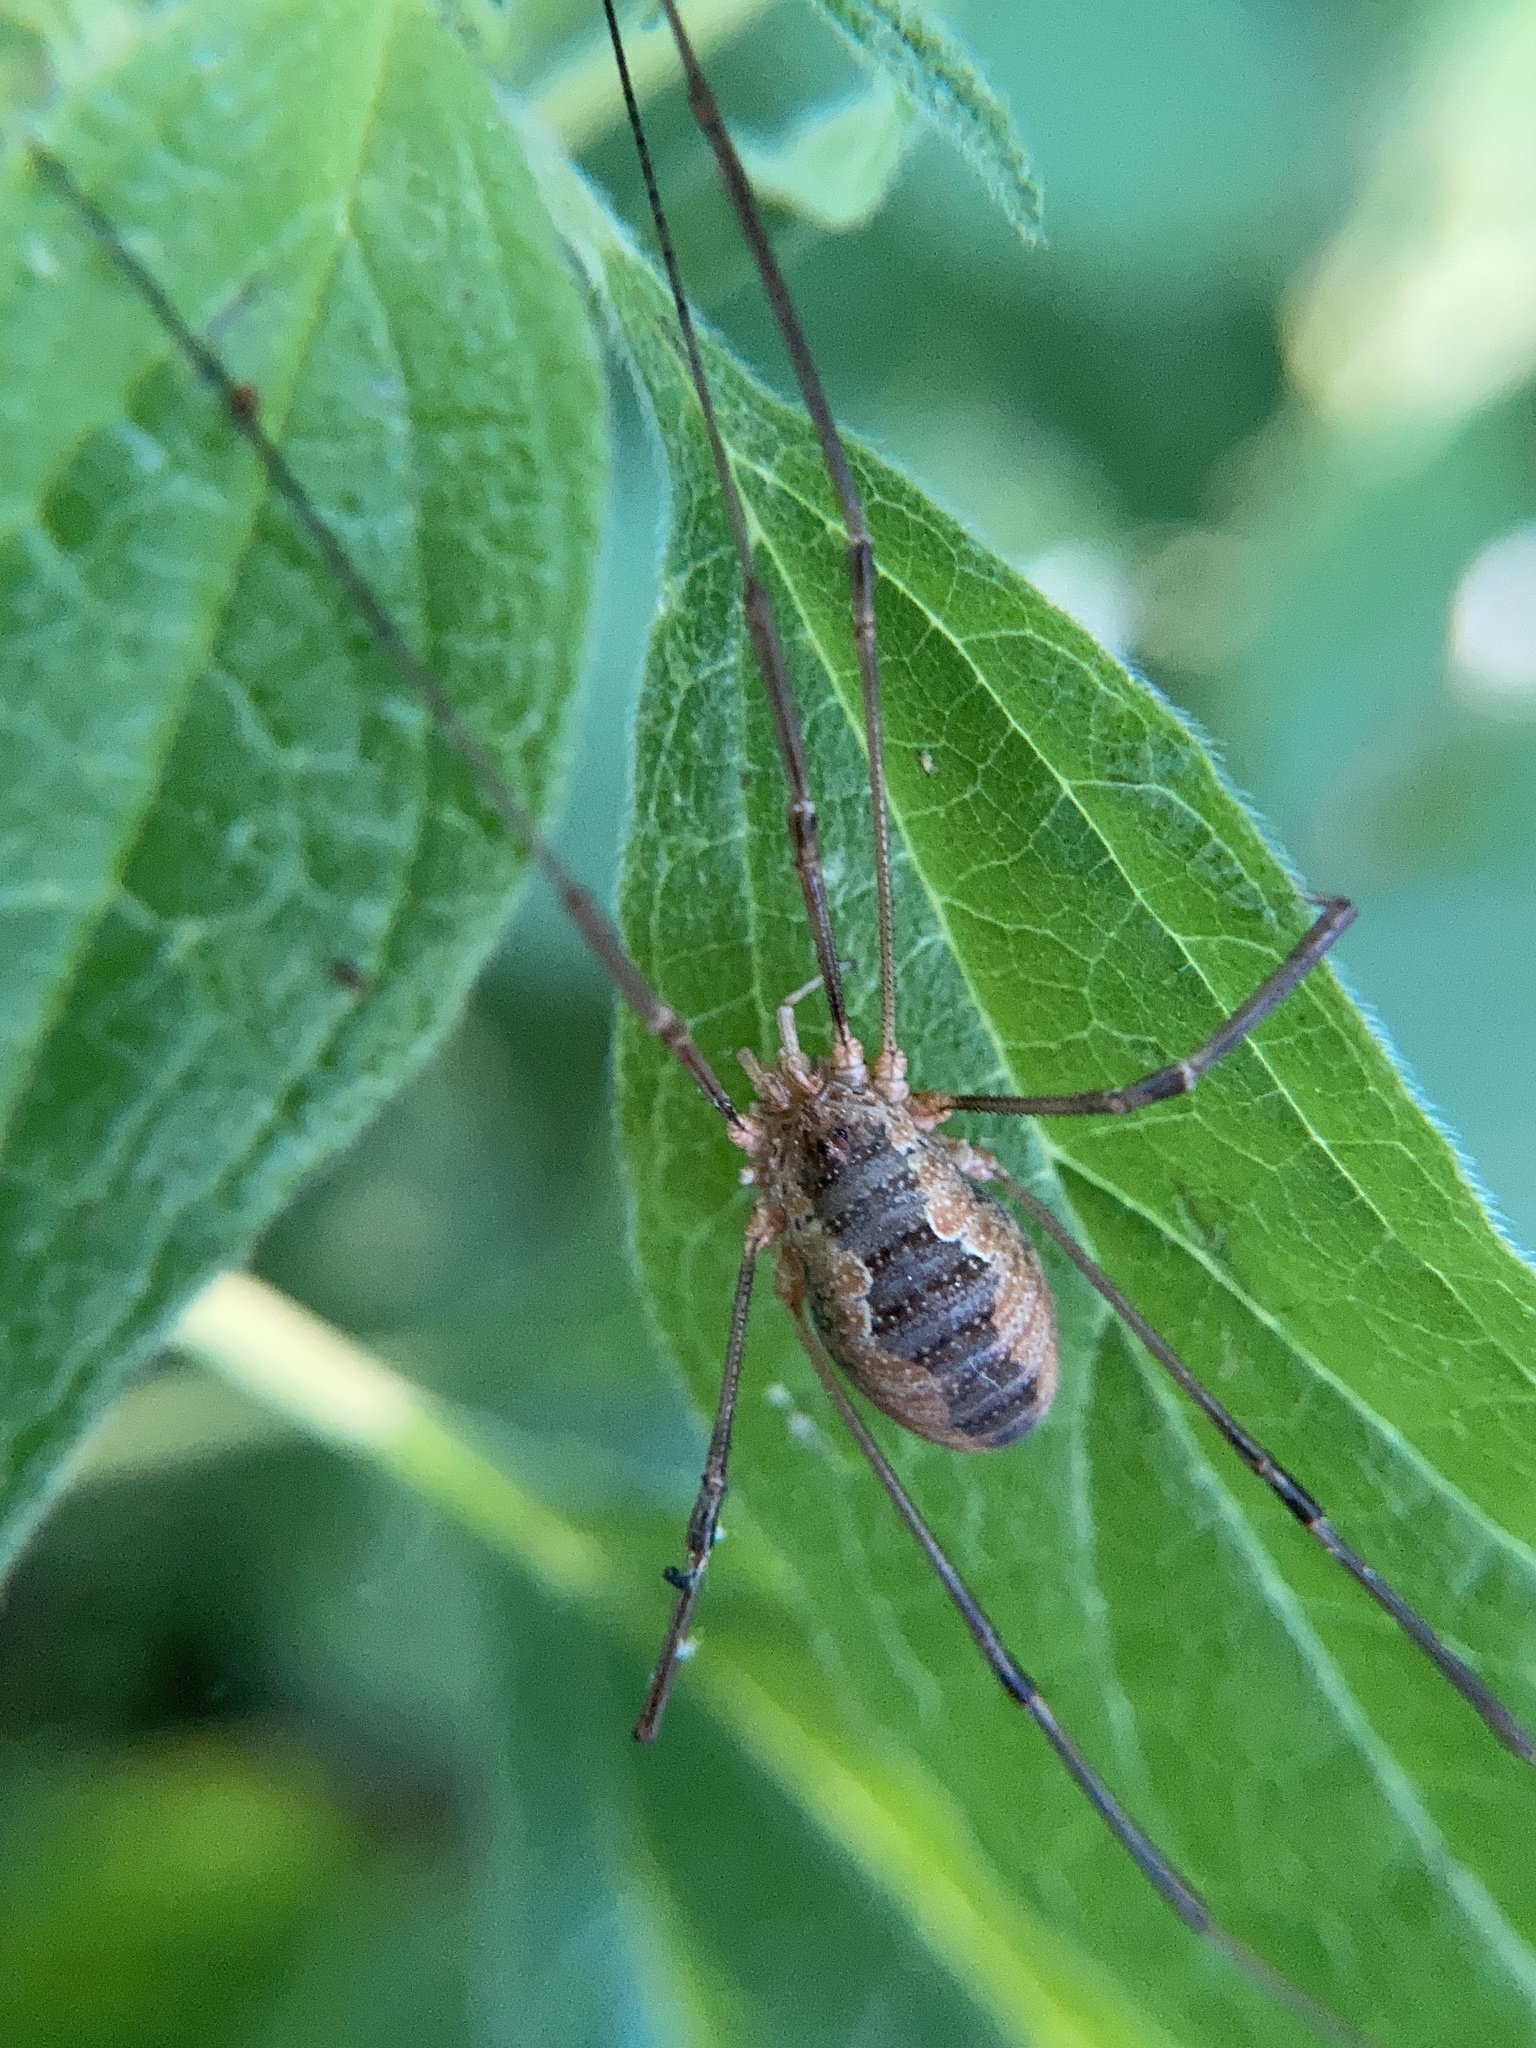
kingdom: Animalia
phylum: Arthropoda
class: Arachnida
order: Opiliones
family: Phalangiidae
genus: Phalangium
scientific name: Phalangium opilio
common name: Daddy longleg
